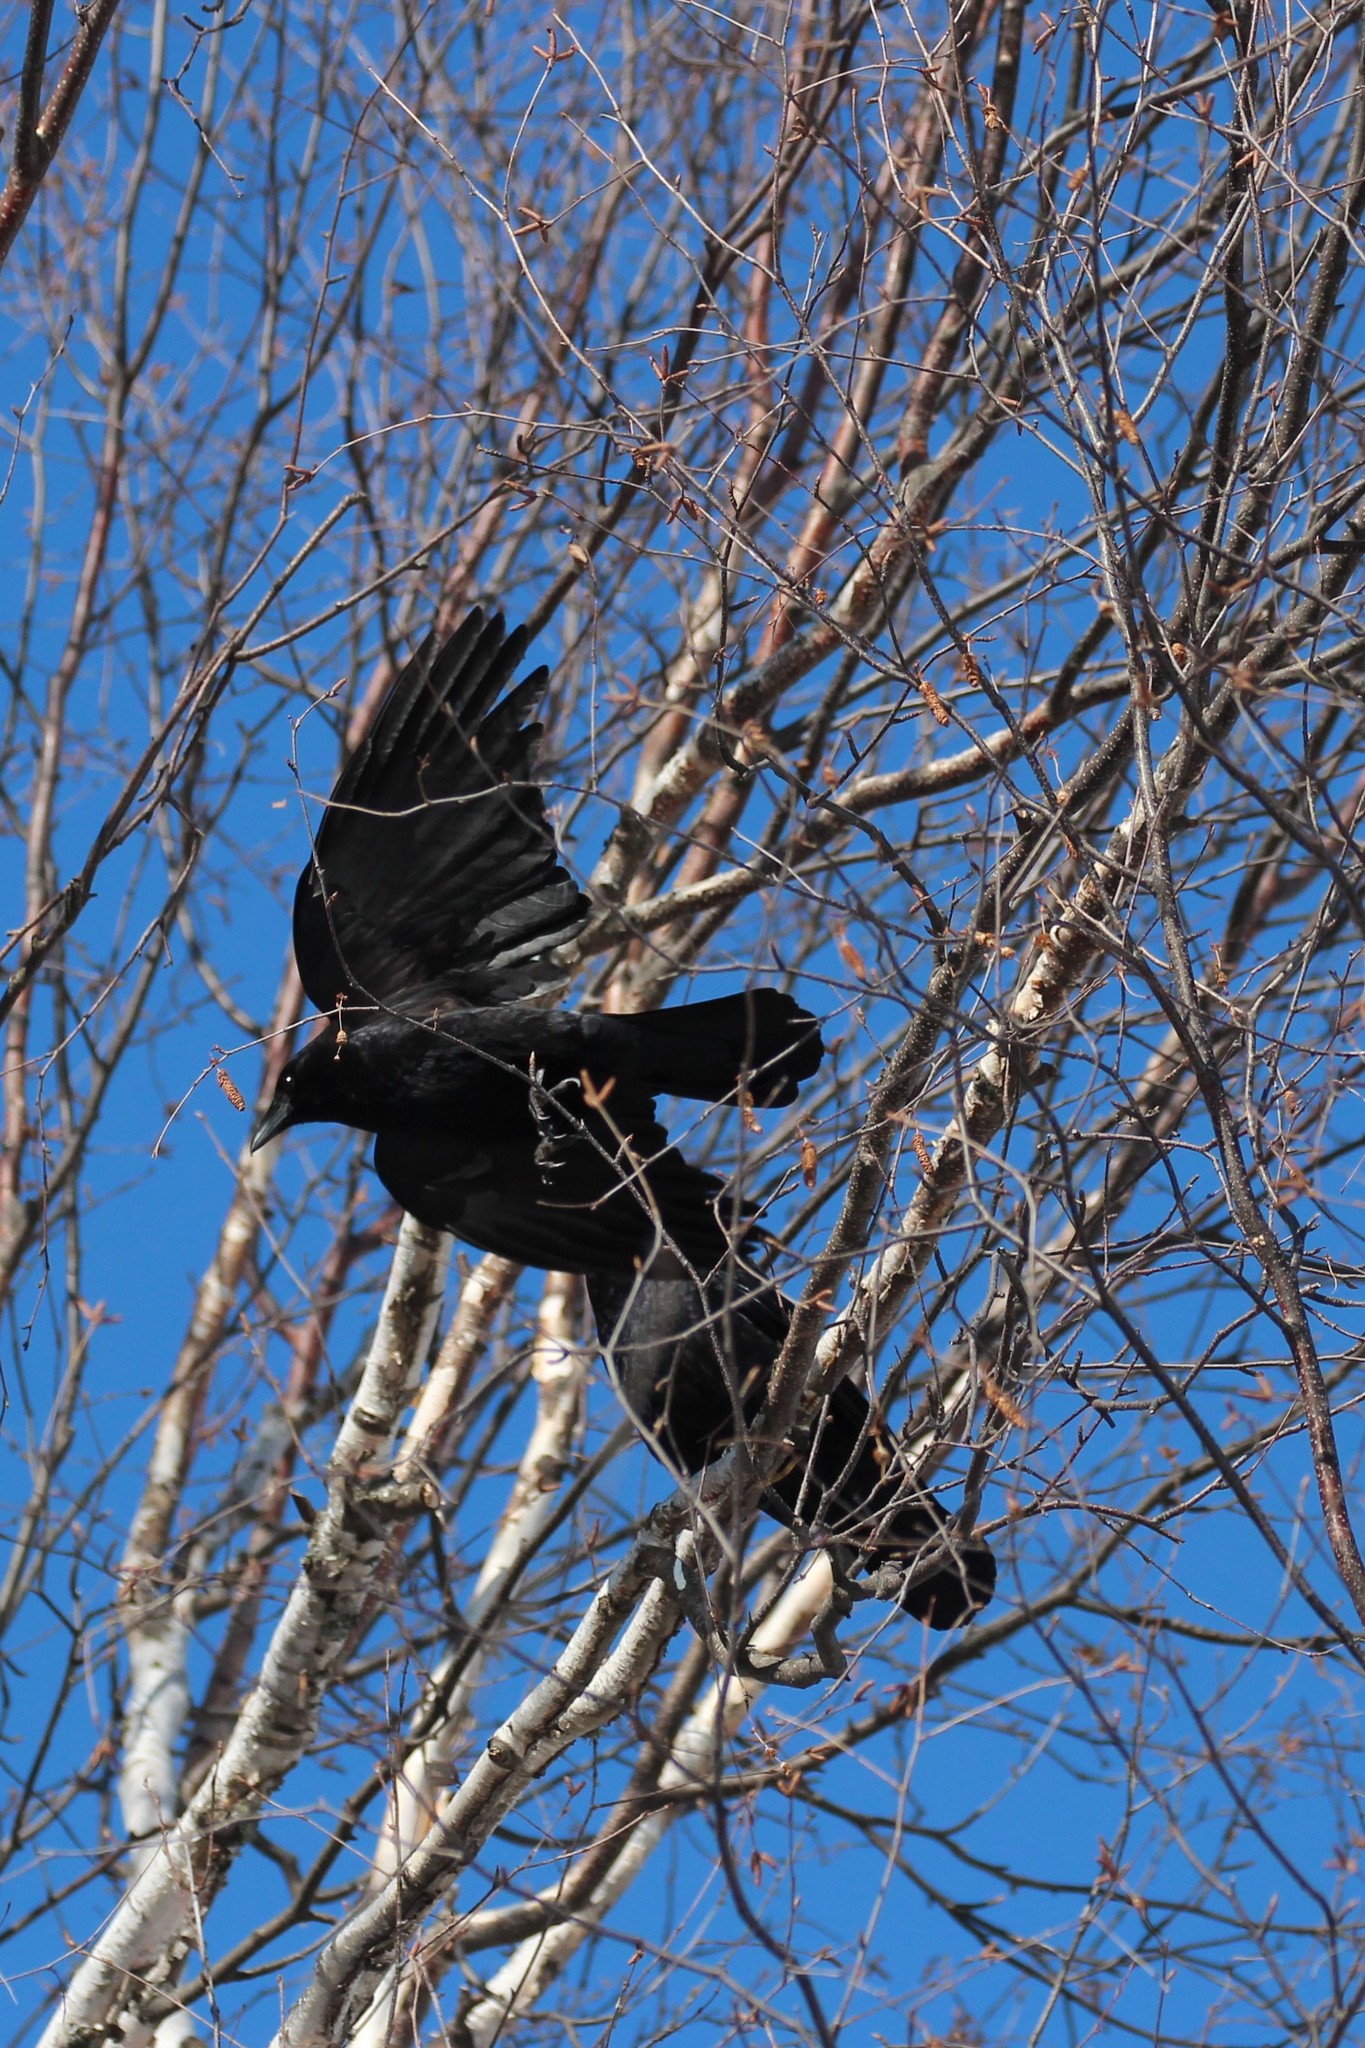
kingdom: Animalia
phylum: Chordata
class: Aves
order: Passeriformes
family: Corvidae
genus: Corvus
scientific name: Corvus brachyrhynchos
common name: American crow
